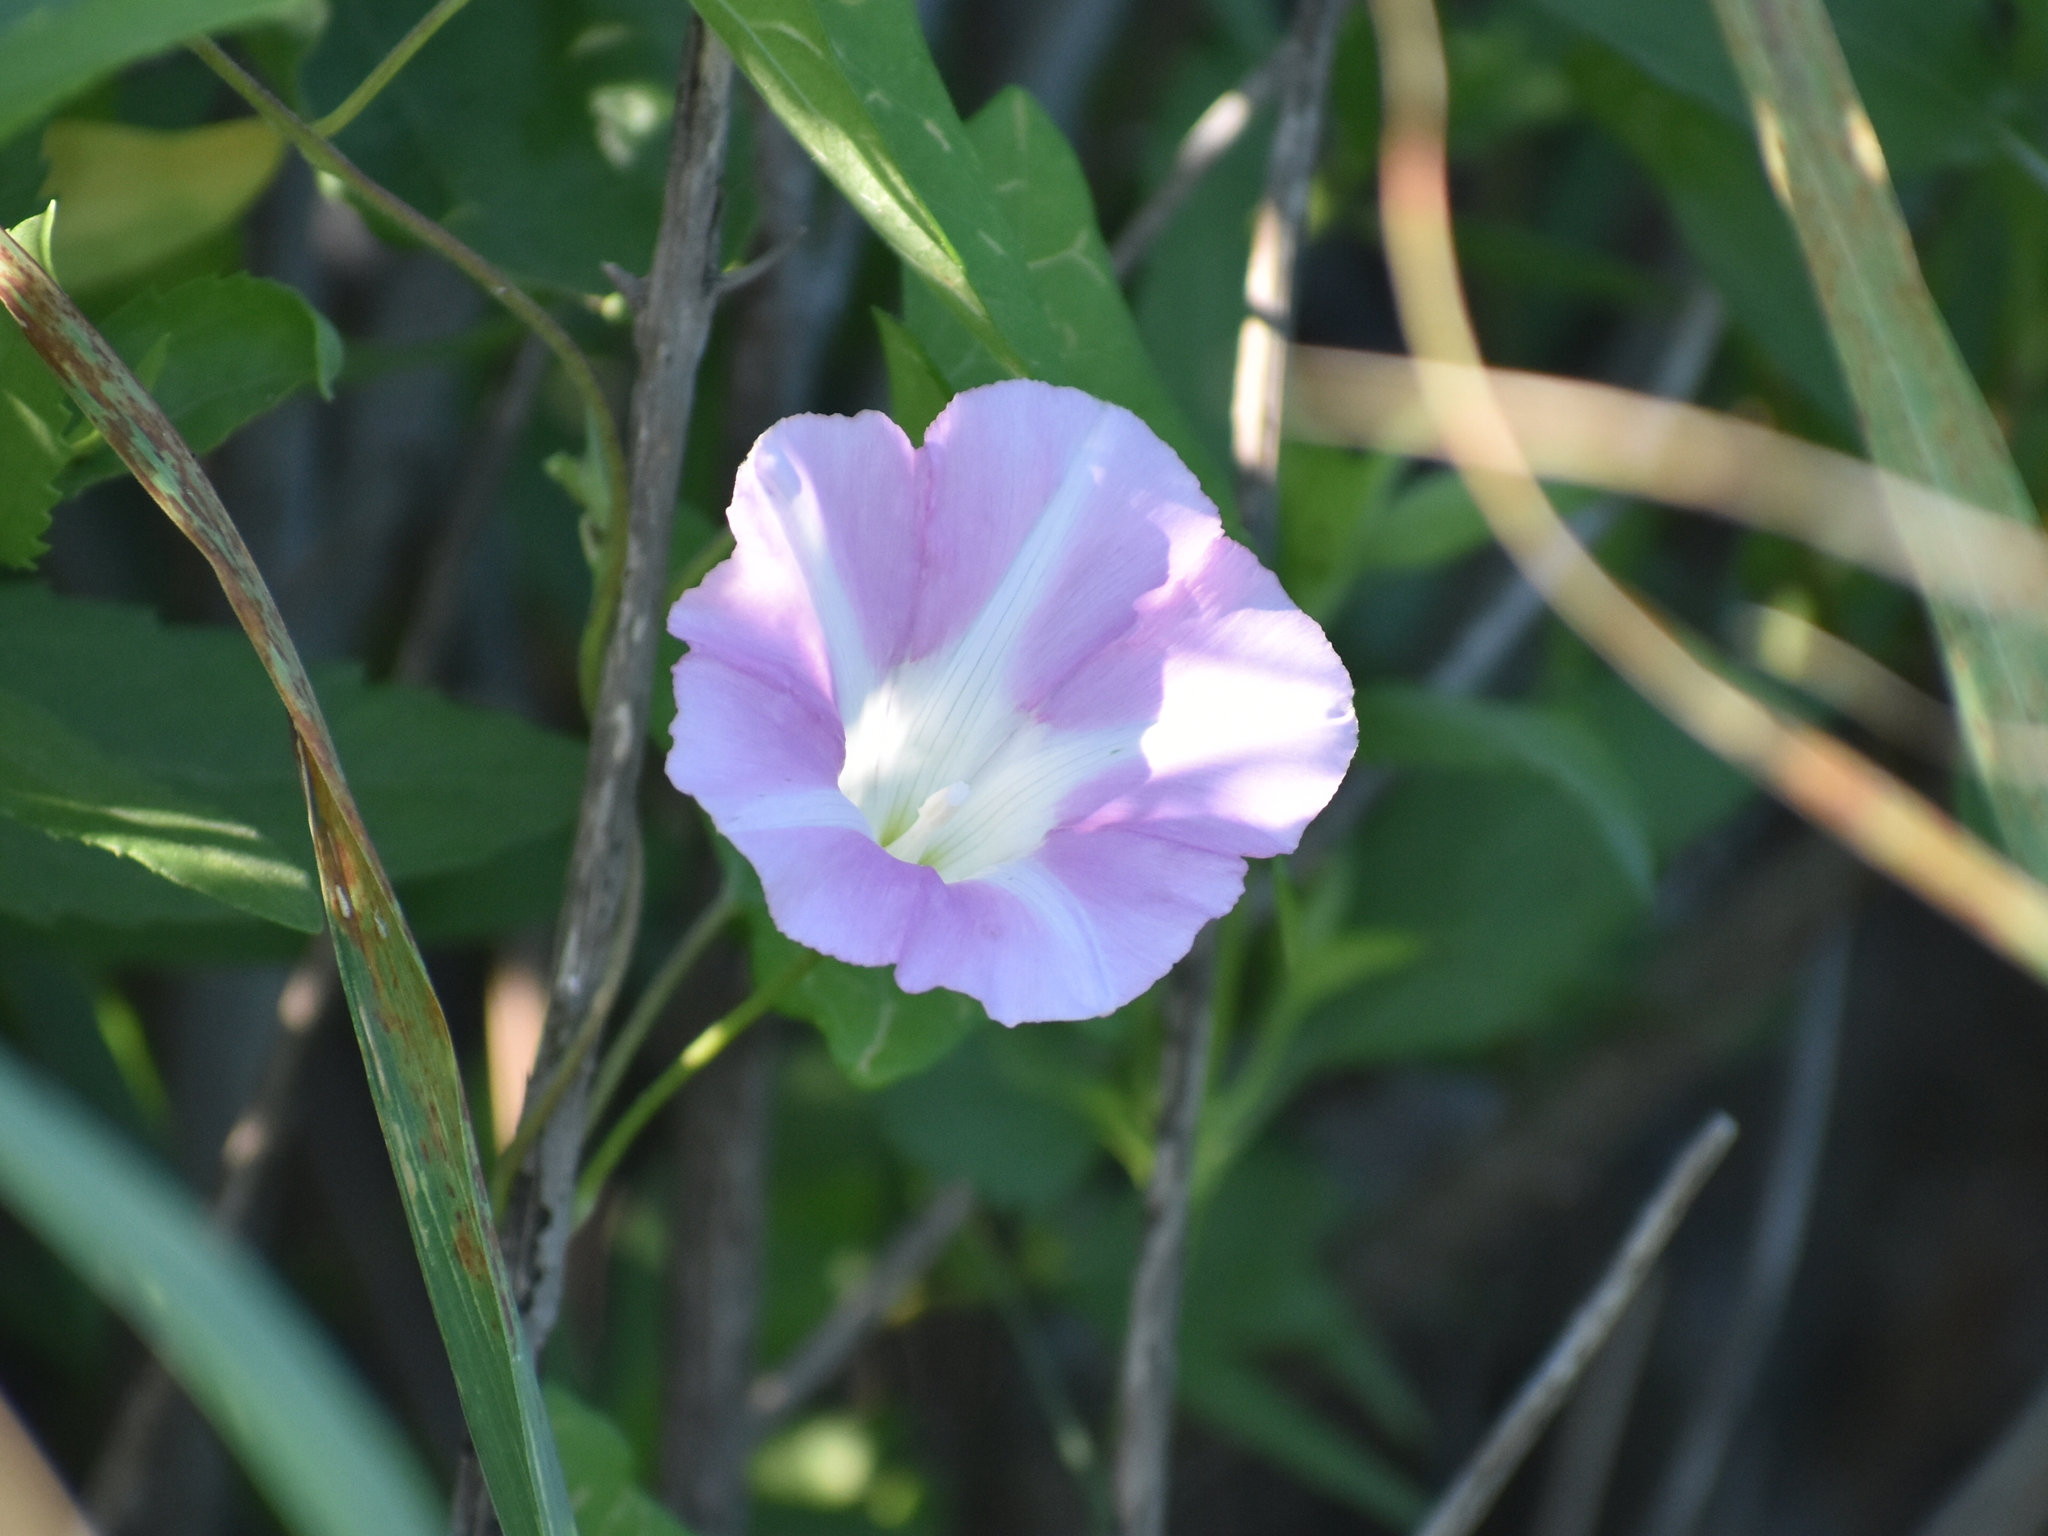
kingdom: Plantae
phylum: Tracheophyta
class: Magnoliopsida
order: Solanales
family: Convolvulaceae
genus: Calystegia
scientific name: Calystegia sepium
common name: Hedge bindweed
